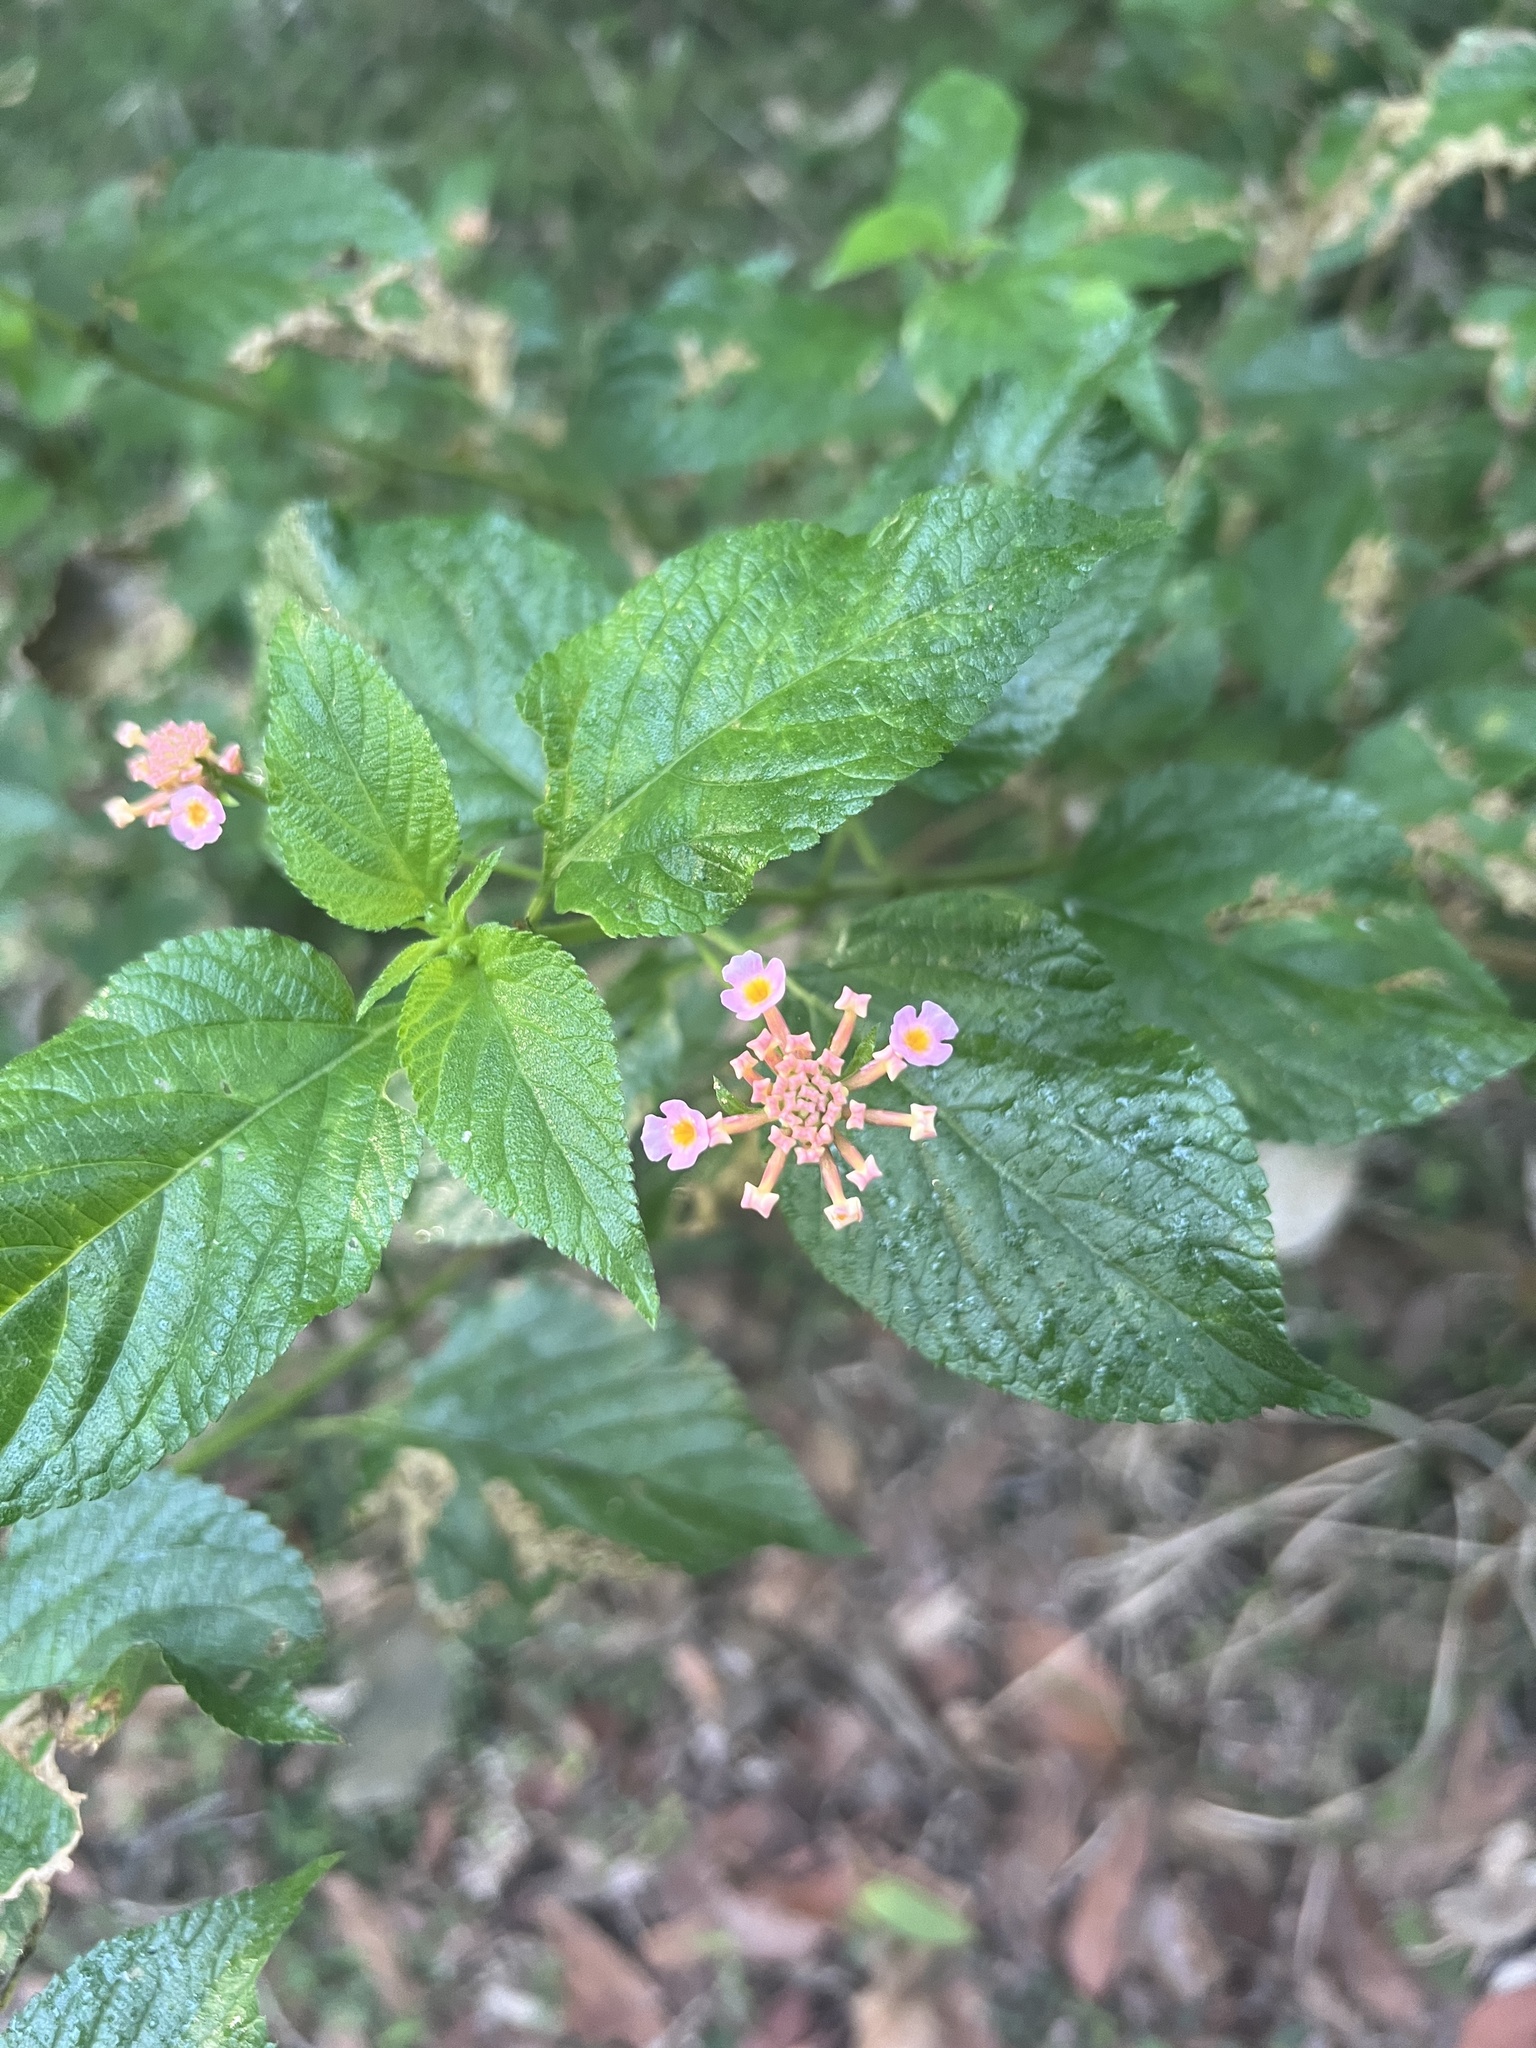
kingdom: Plantae
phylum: Tracheophyta
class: Magnoliopsida
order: Lamiales
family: Verbenaceae
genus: Lantana
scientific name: Lantana camara
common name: Lantana
